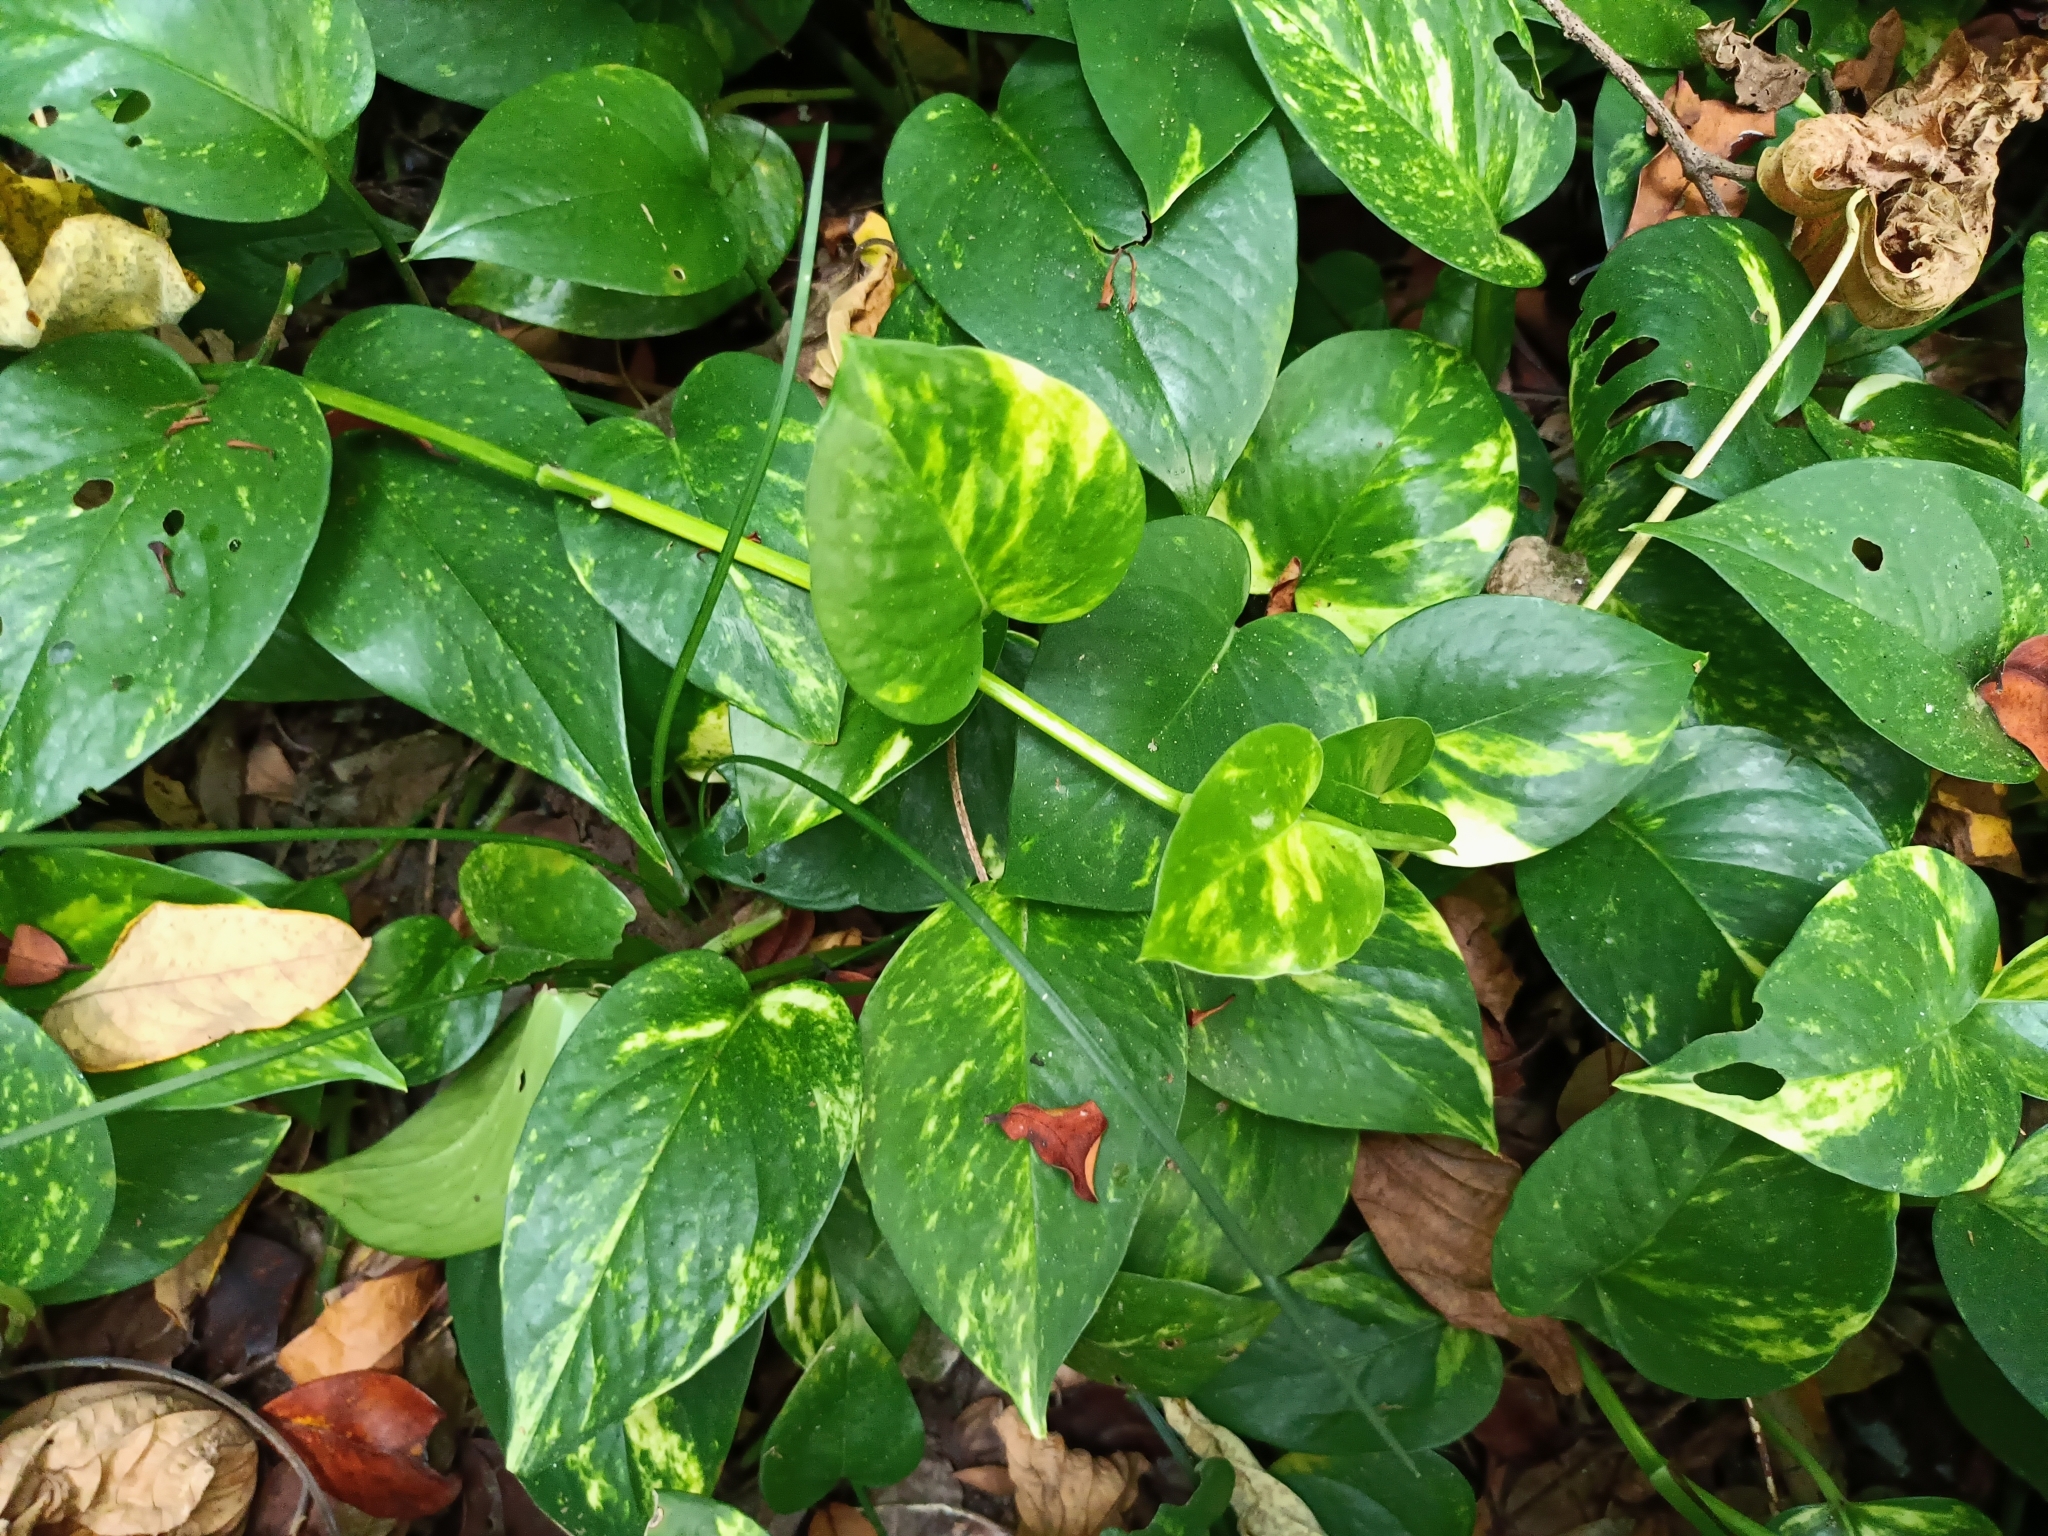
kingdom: Plantae
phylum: Tracheophyta
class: Liliopsida
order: Alismatales
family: Araceae
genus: Epipremnum
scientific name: Epipremnum aureum
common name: Golden hunter's-robe
